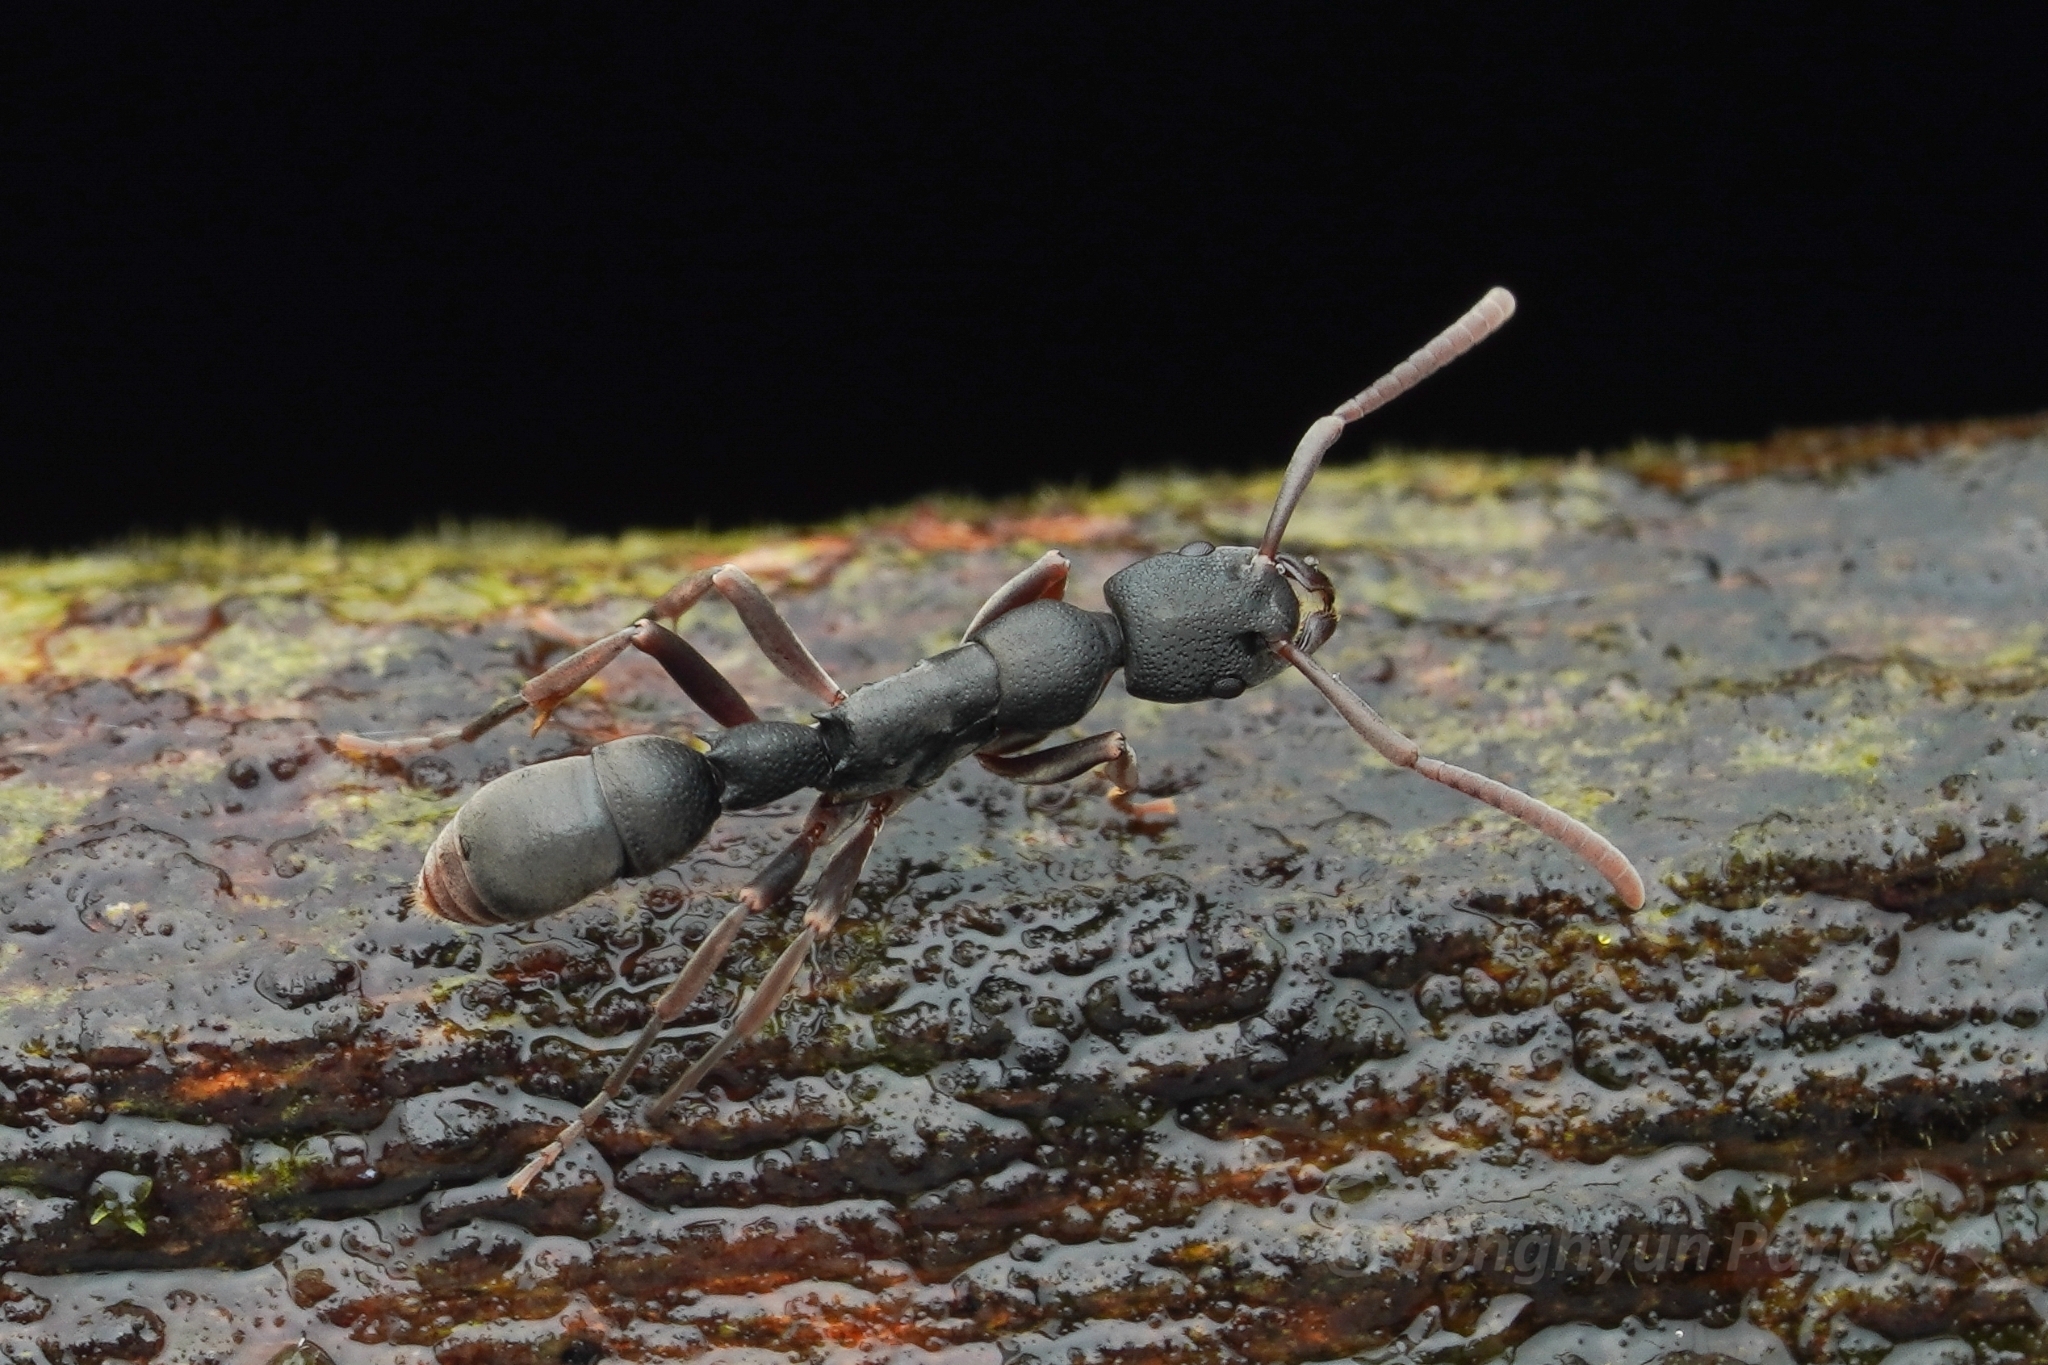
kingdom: Animalia
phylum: Arthropoda
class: Insecta
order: Hymenoptera
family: Formicidae
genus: Platythyrea
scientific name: Platythyrea tricuspidata
